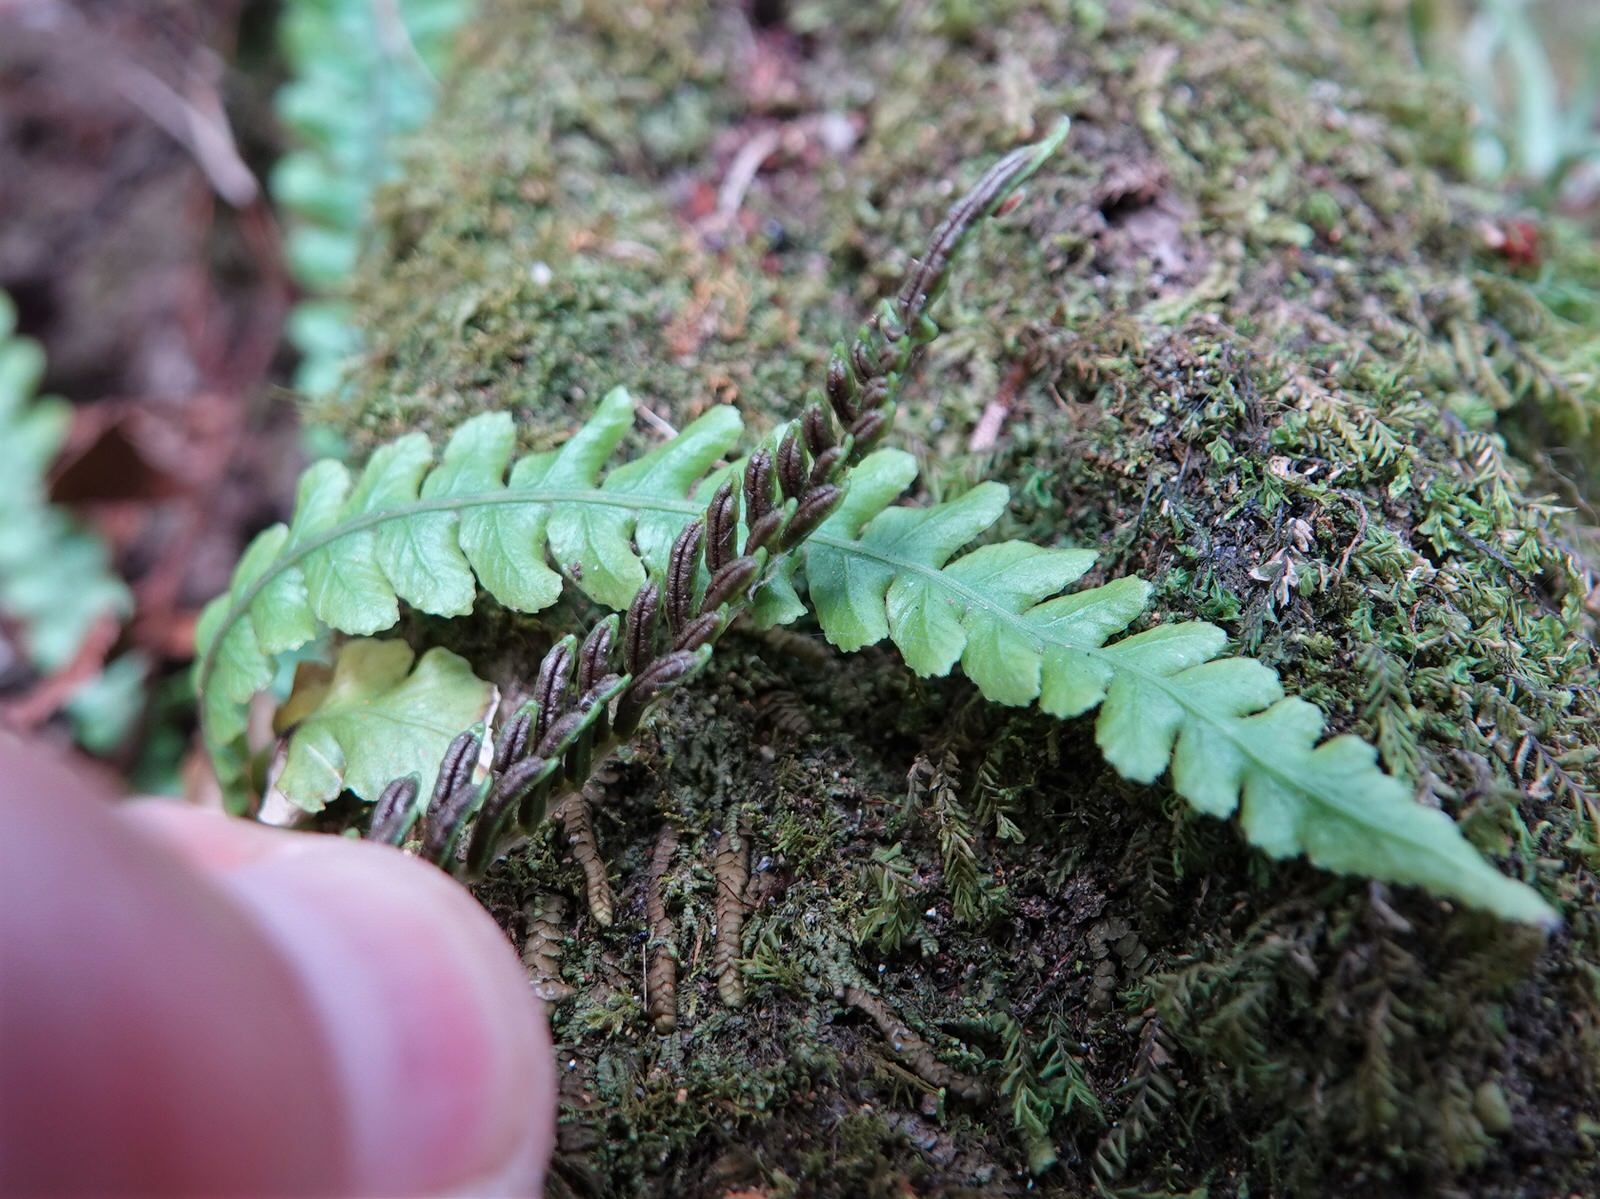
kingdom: Plantae
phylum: Tracheophyta
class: Polypodiopsida
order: Polypodiales
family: Blechnaceae
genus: Austroblechnum
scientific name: Austroblechnum membranaceum
